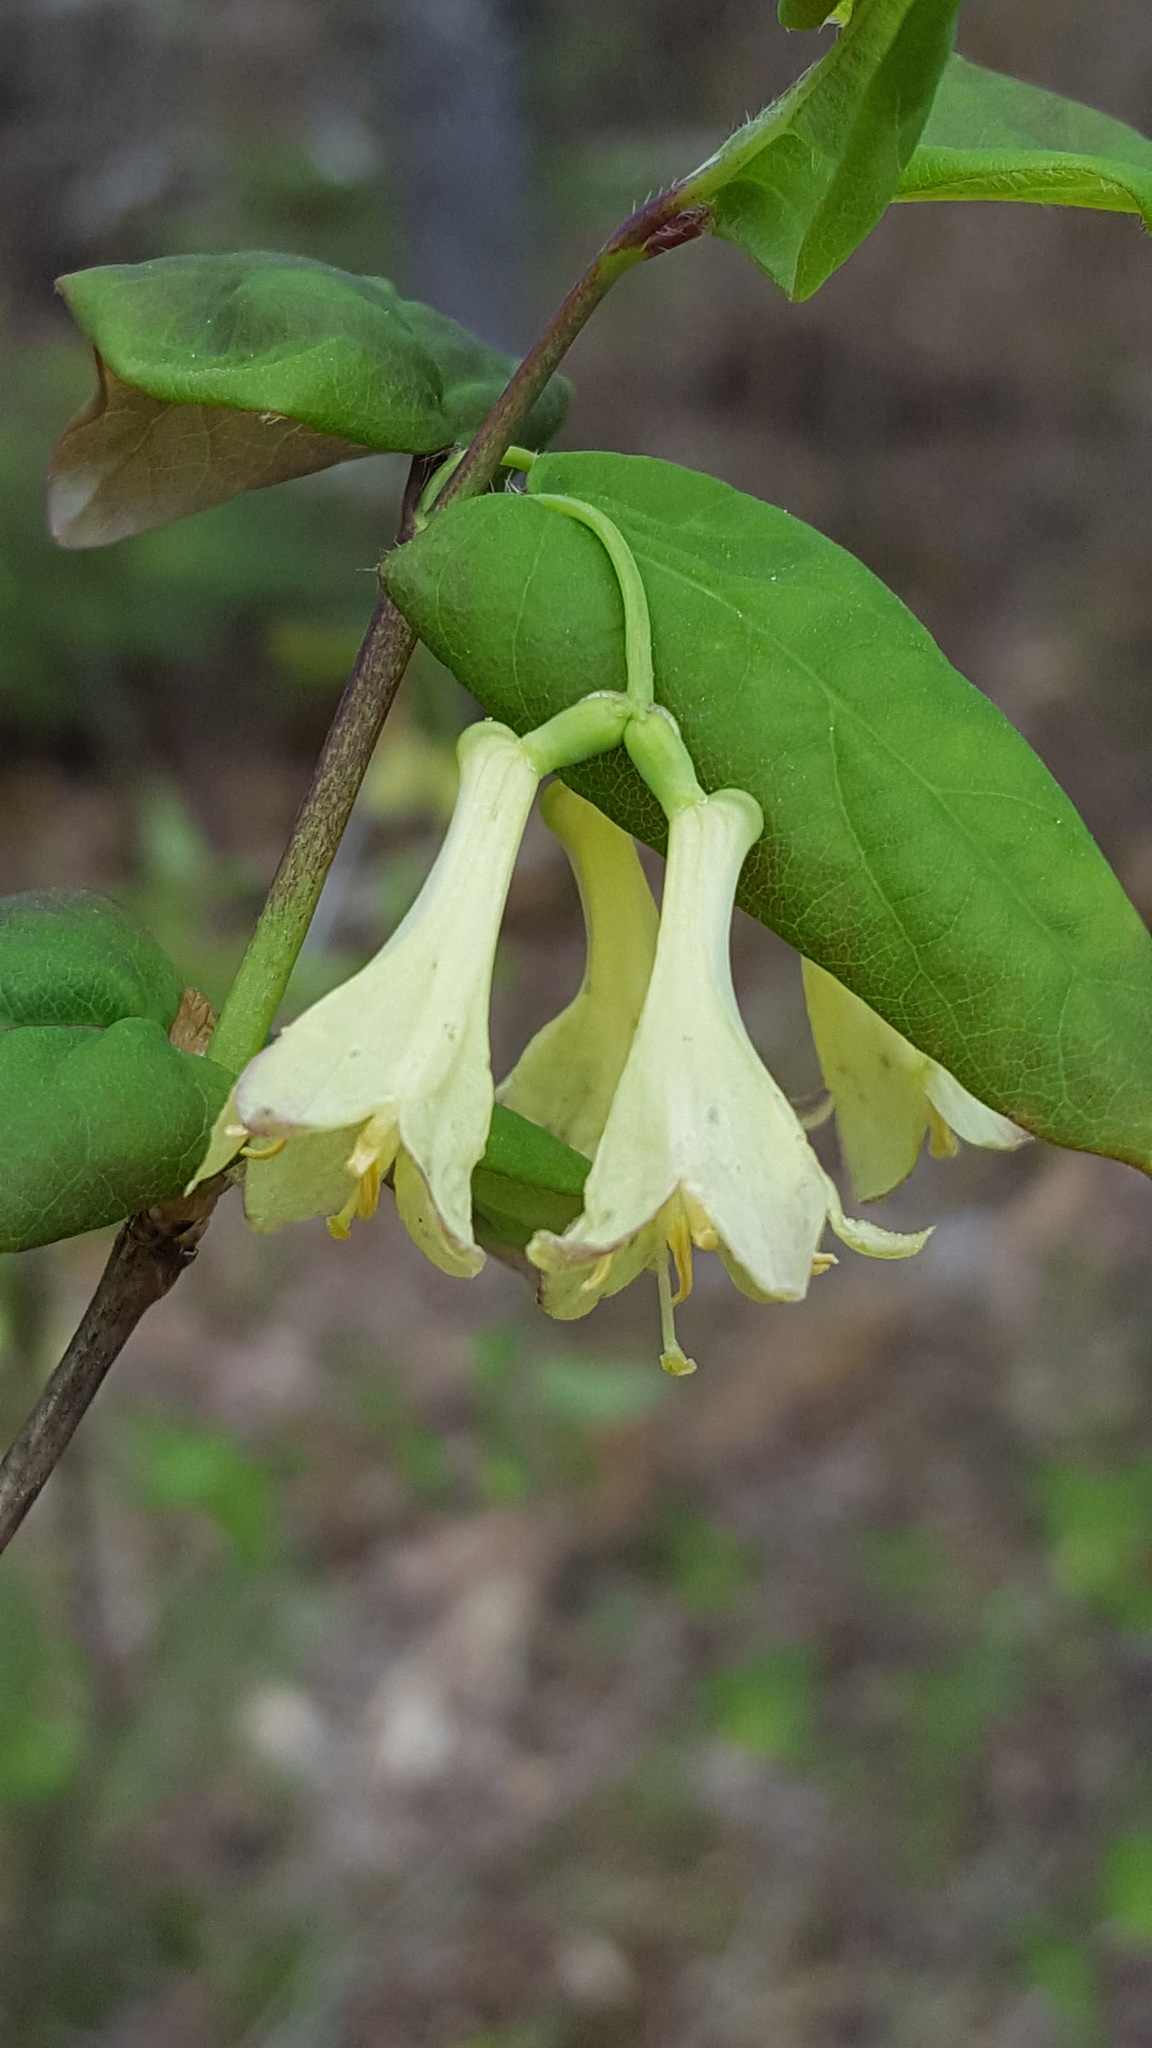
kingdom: Plantae
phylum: Tracheophyta
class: Magnoliopsida
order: Dipsacales
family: Caprifoliaceae
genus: Lonicera
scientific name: Lonicera canadensis
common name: American fly-honeysuckle
